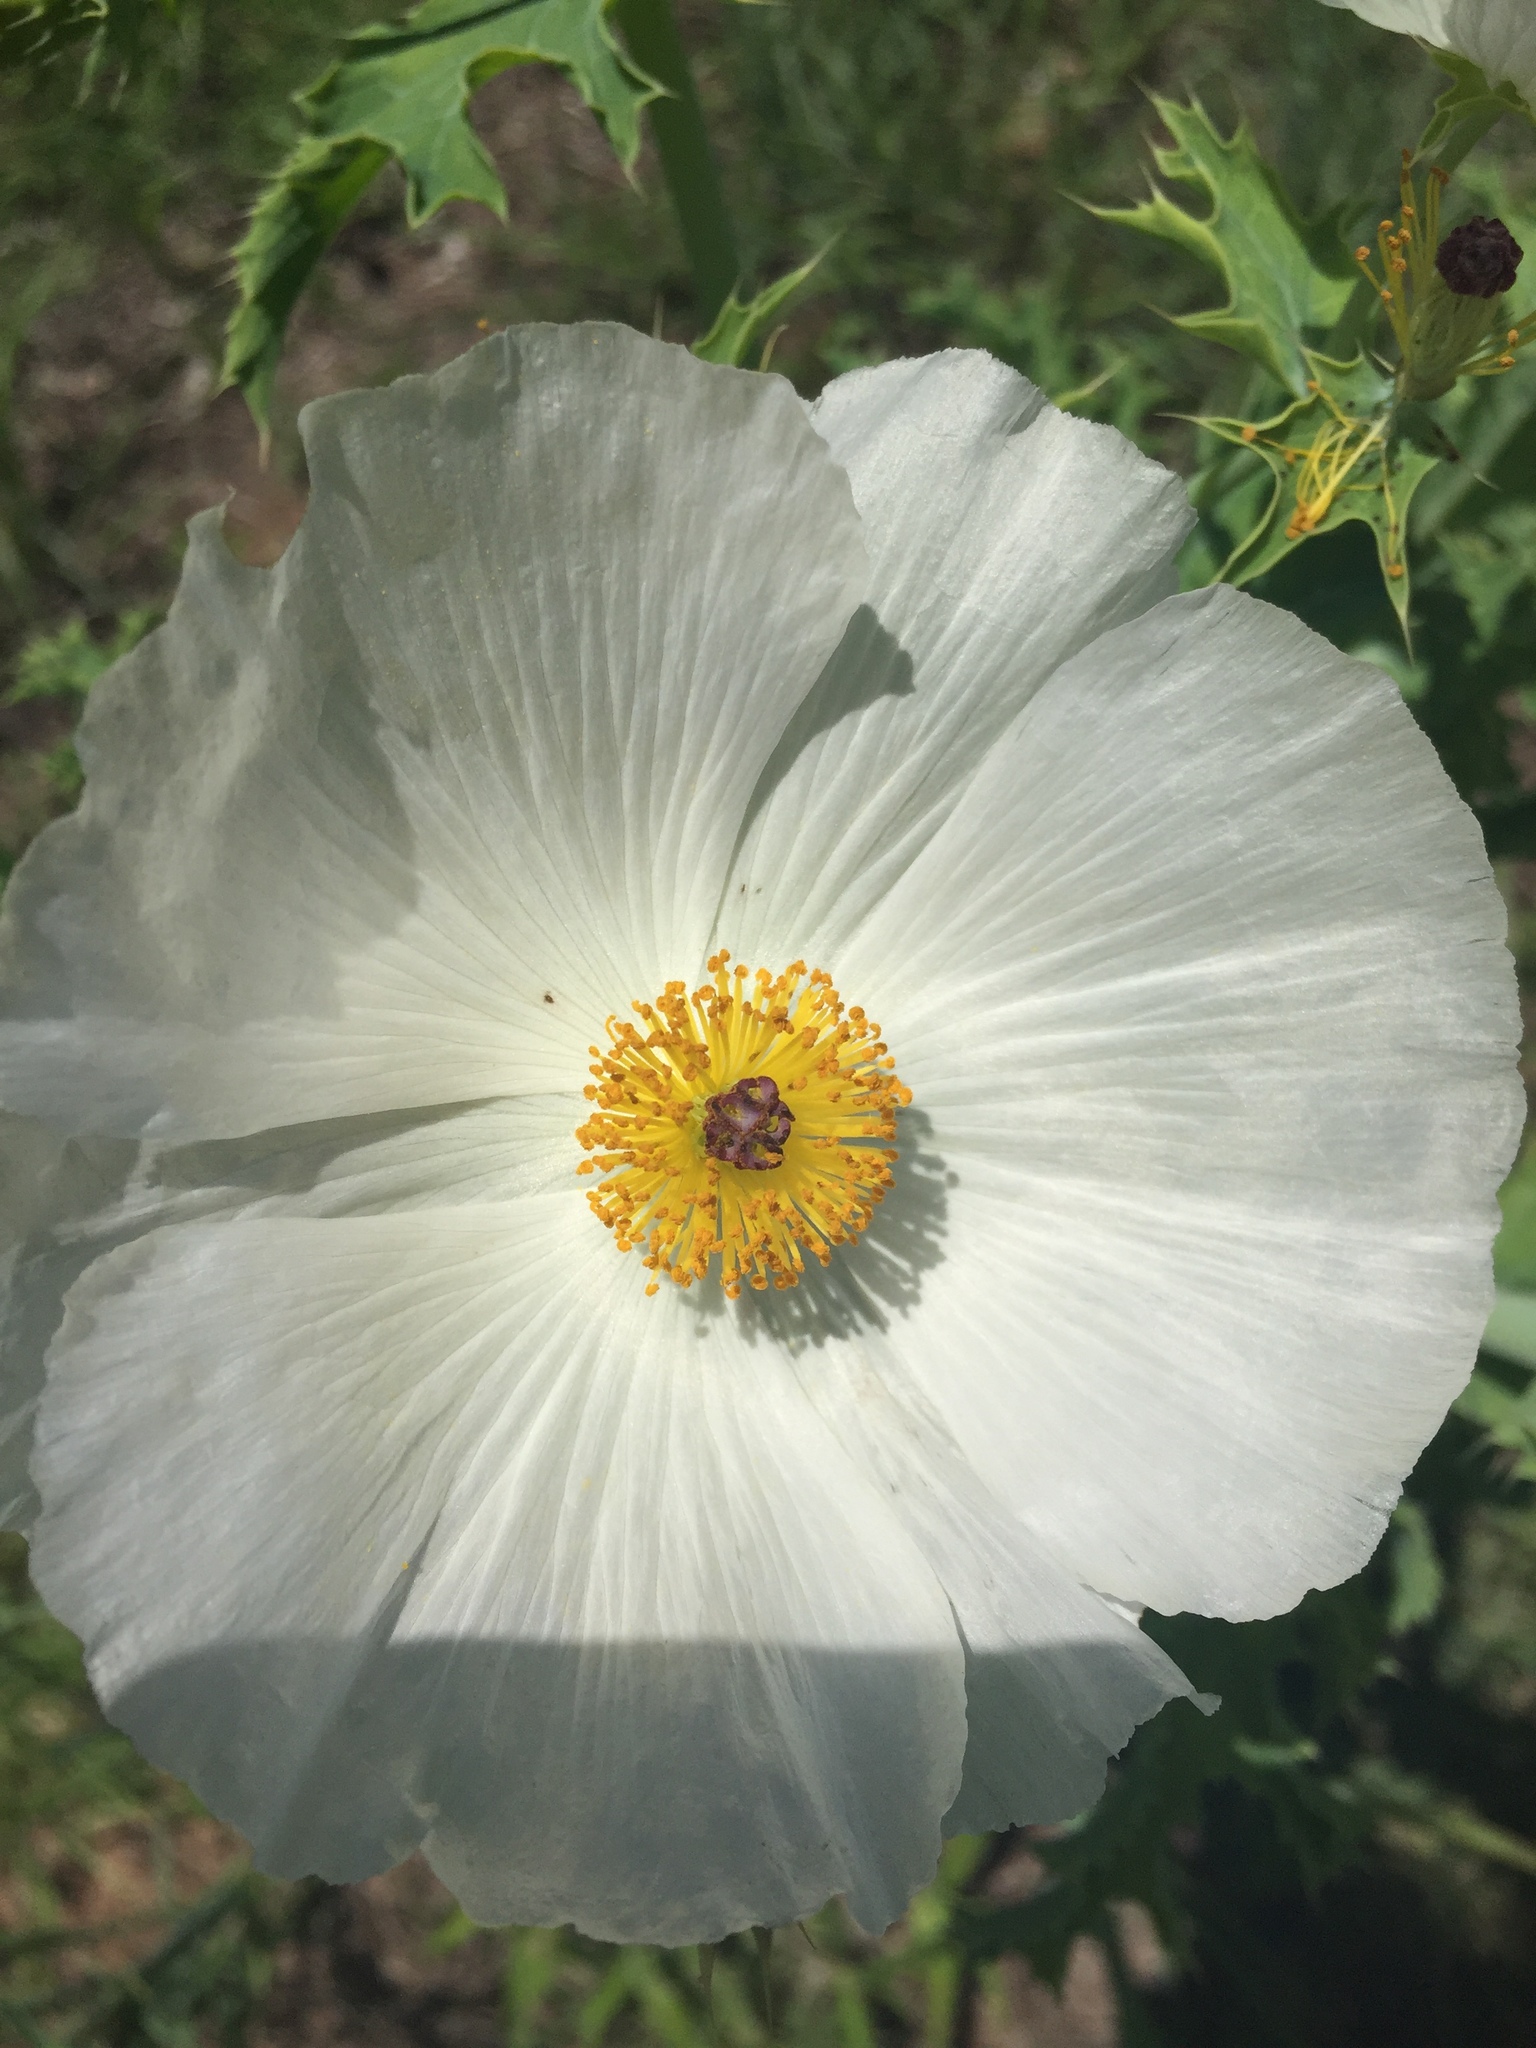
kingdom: Plantae
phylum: Tracheophyta
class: Magnoliopsida
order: Ranunculales
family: Papaveraceae
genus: Argemone
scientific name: Argemone polyanthemos
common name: Plains prickly-poppy
